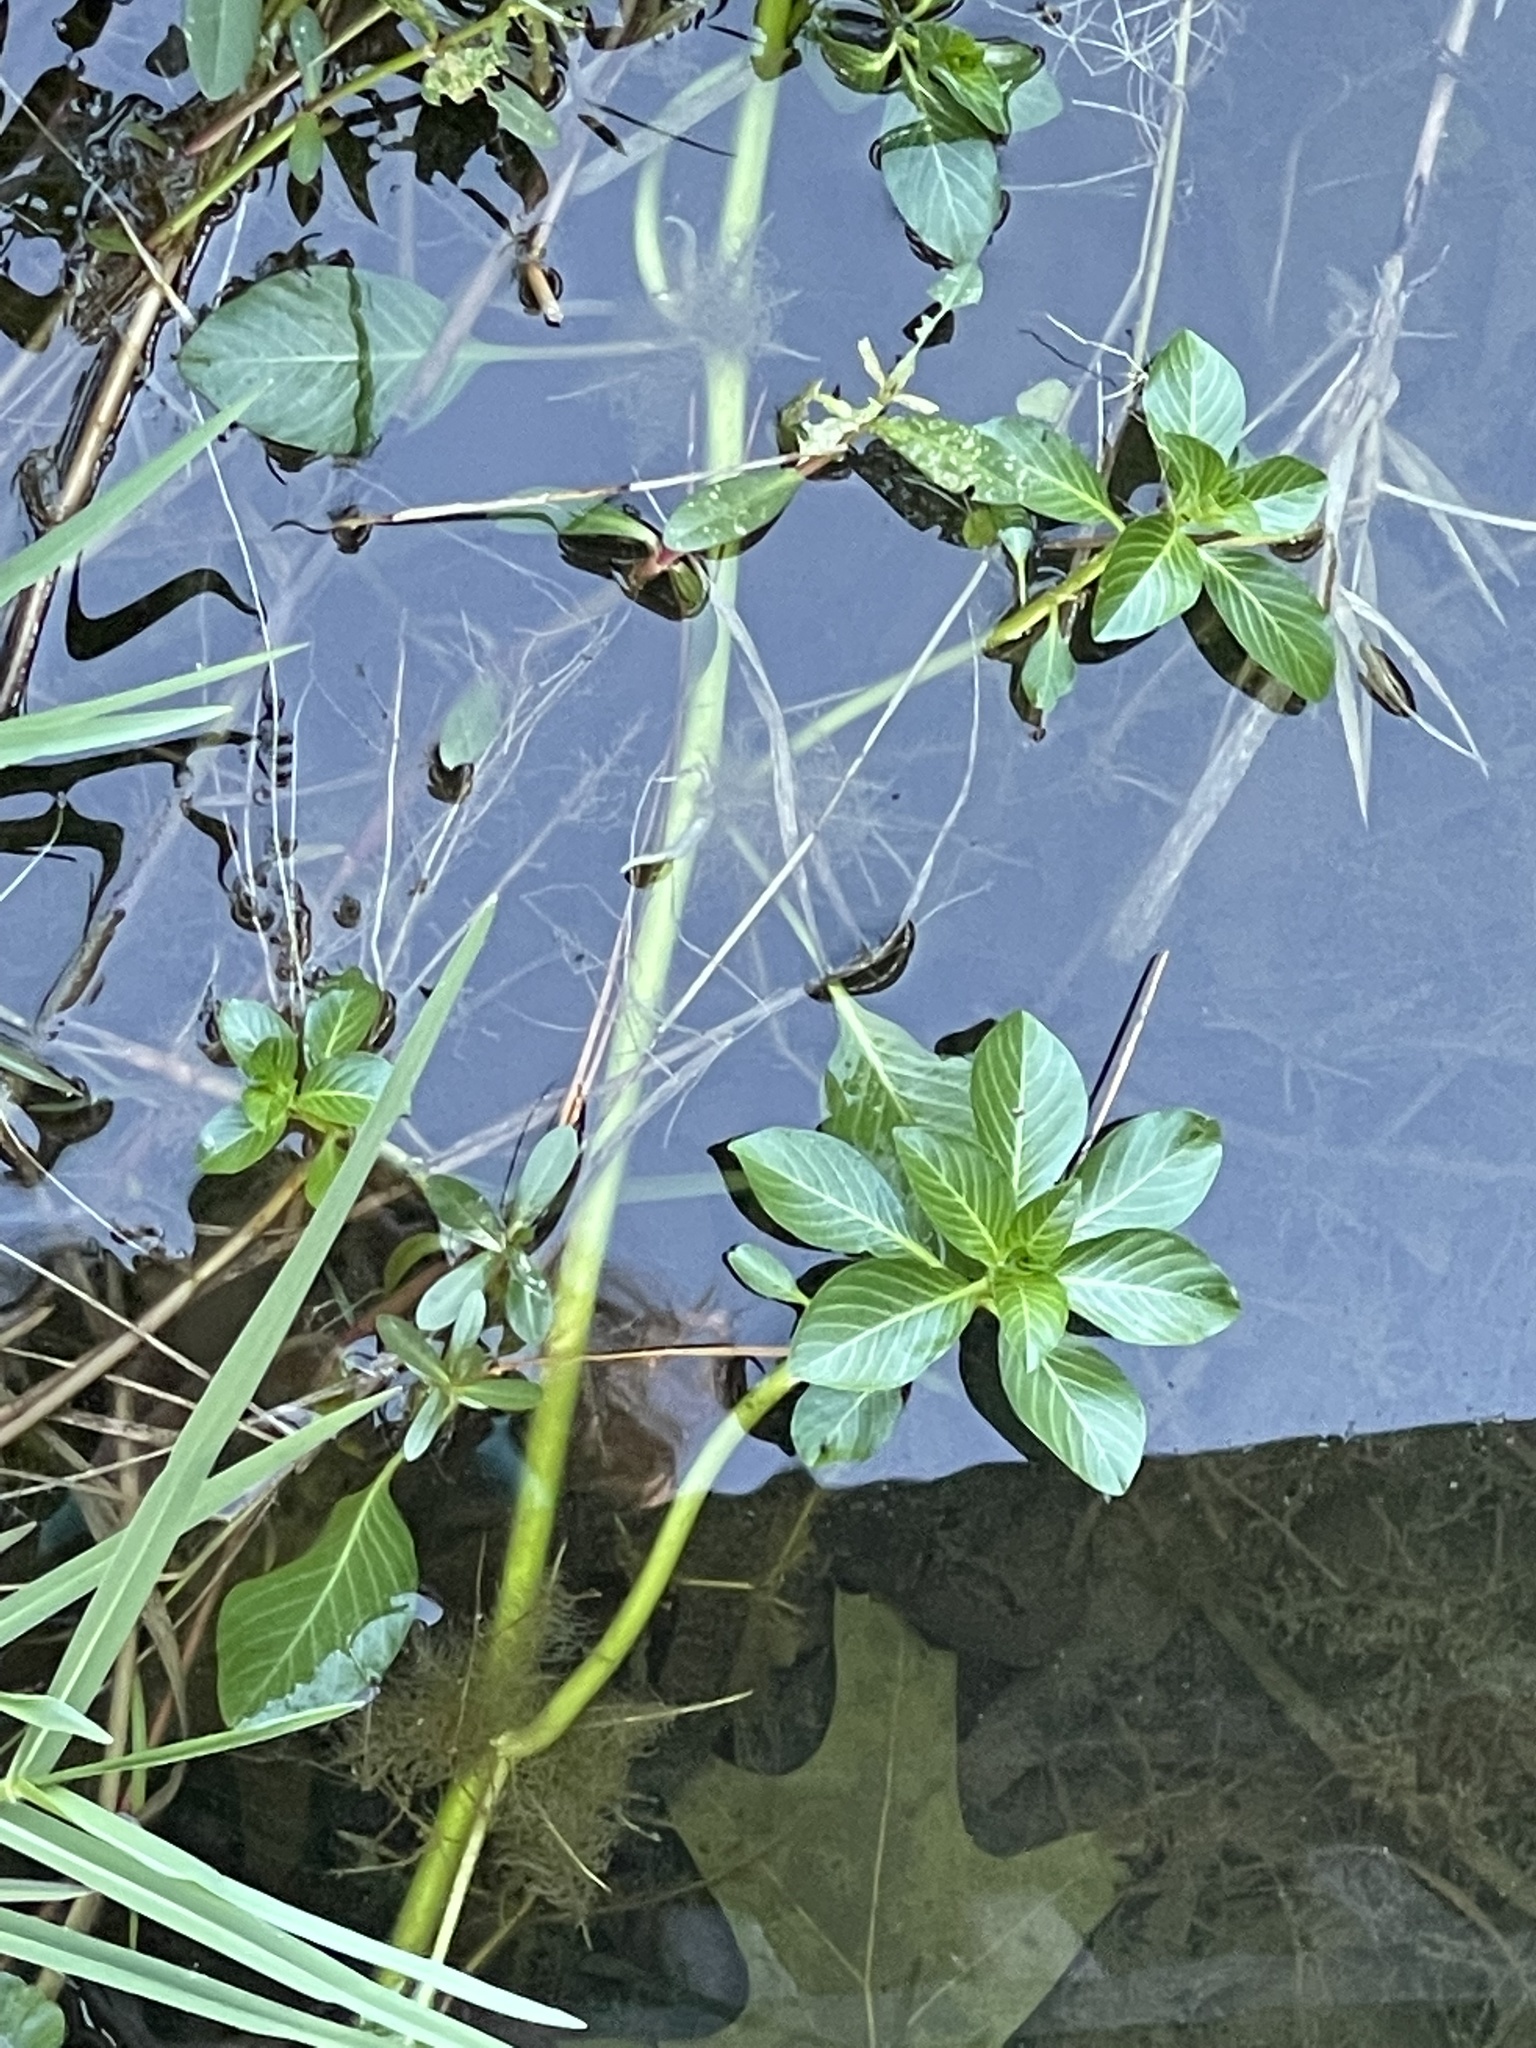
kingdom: Plantae
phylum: Tracheophyta
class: Magnoliopsida
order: Myrtales
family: Onagraceae
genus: Ludwigia
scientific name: Ludwigia hexapetala
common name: Water-primrose
